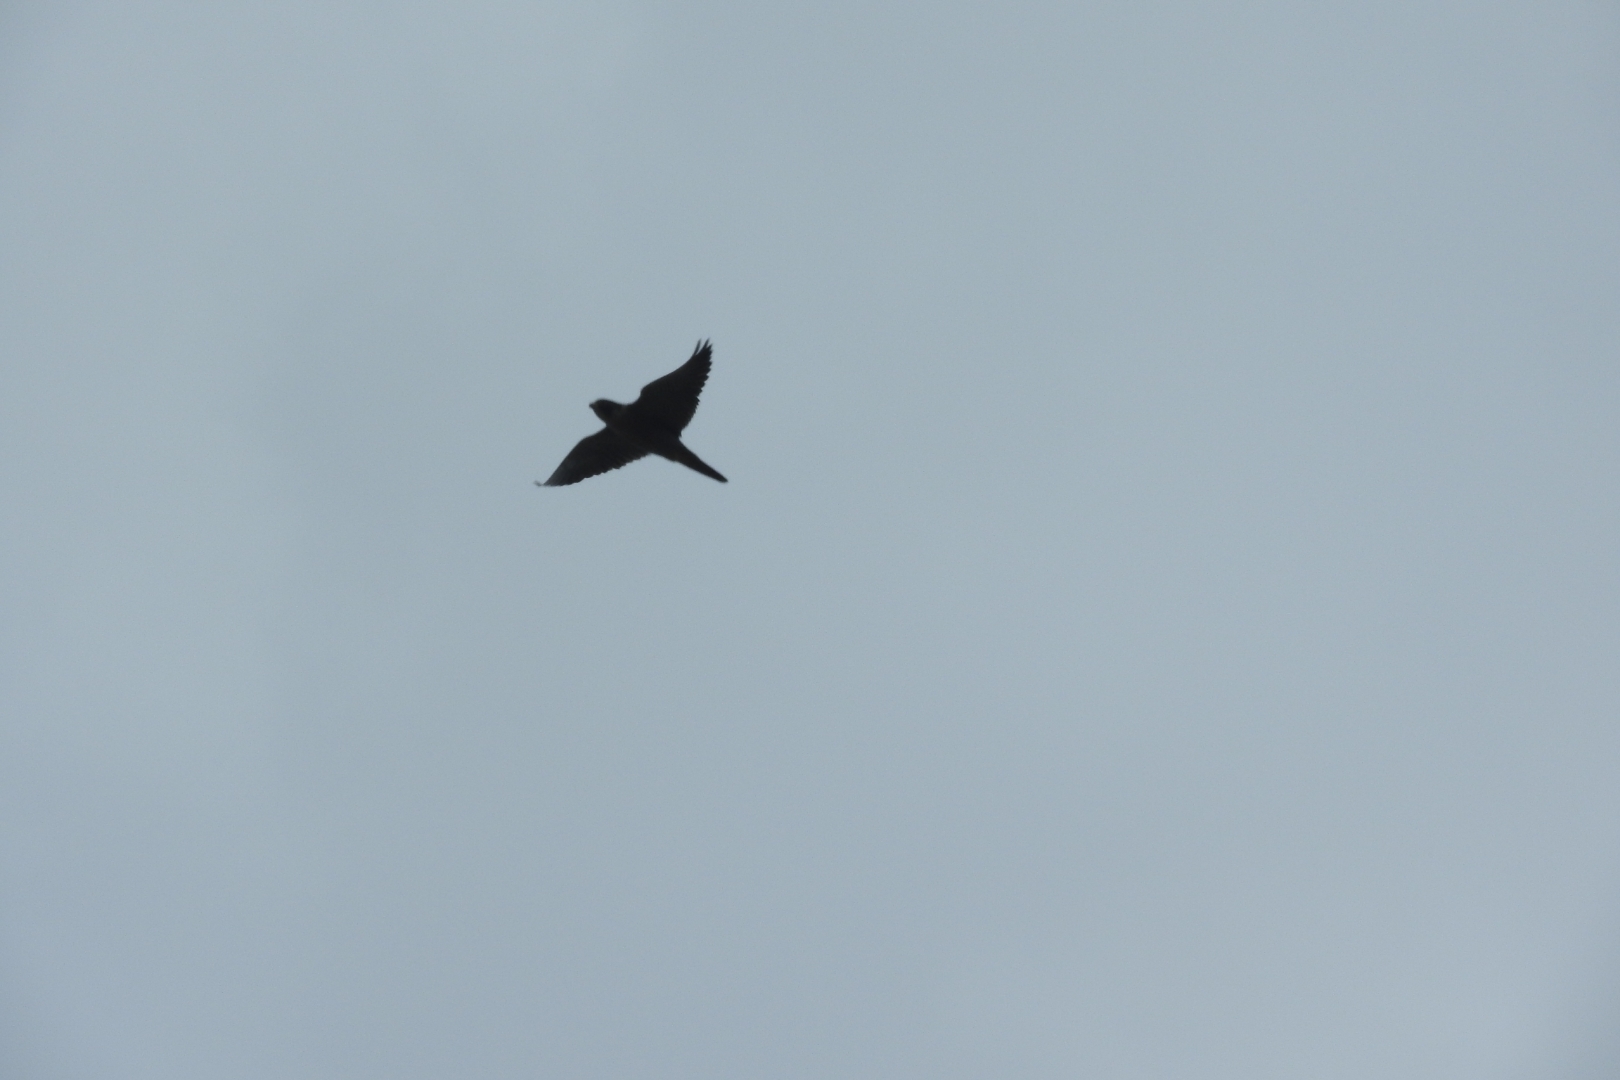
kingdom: Animalia
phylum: Chordata
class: Aves
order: Falconiformes
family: Falconidae
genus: Falco
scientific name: Falco peregrinus
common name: Peregrine falcon
